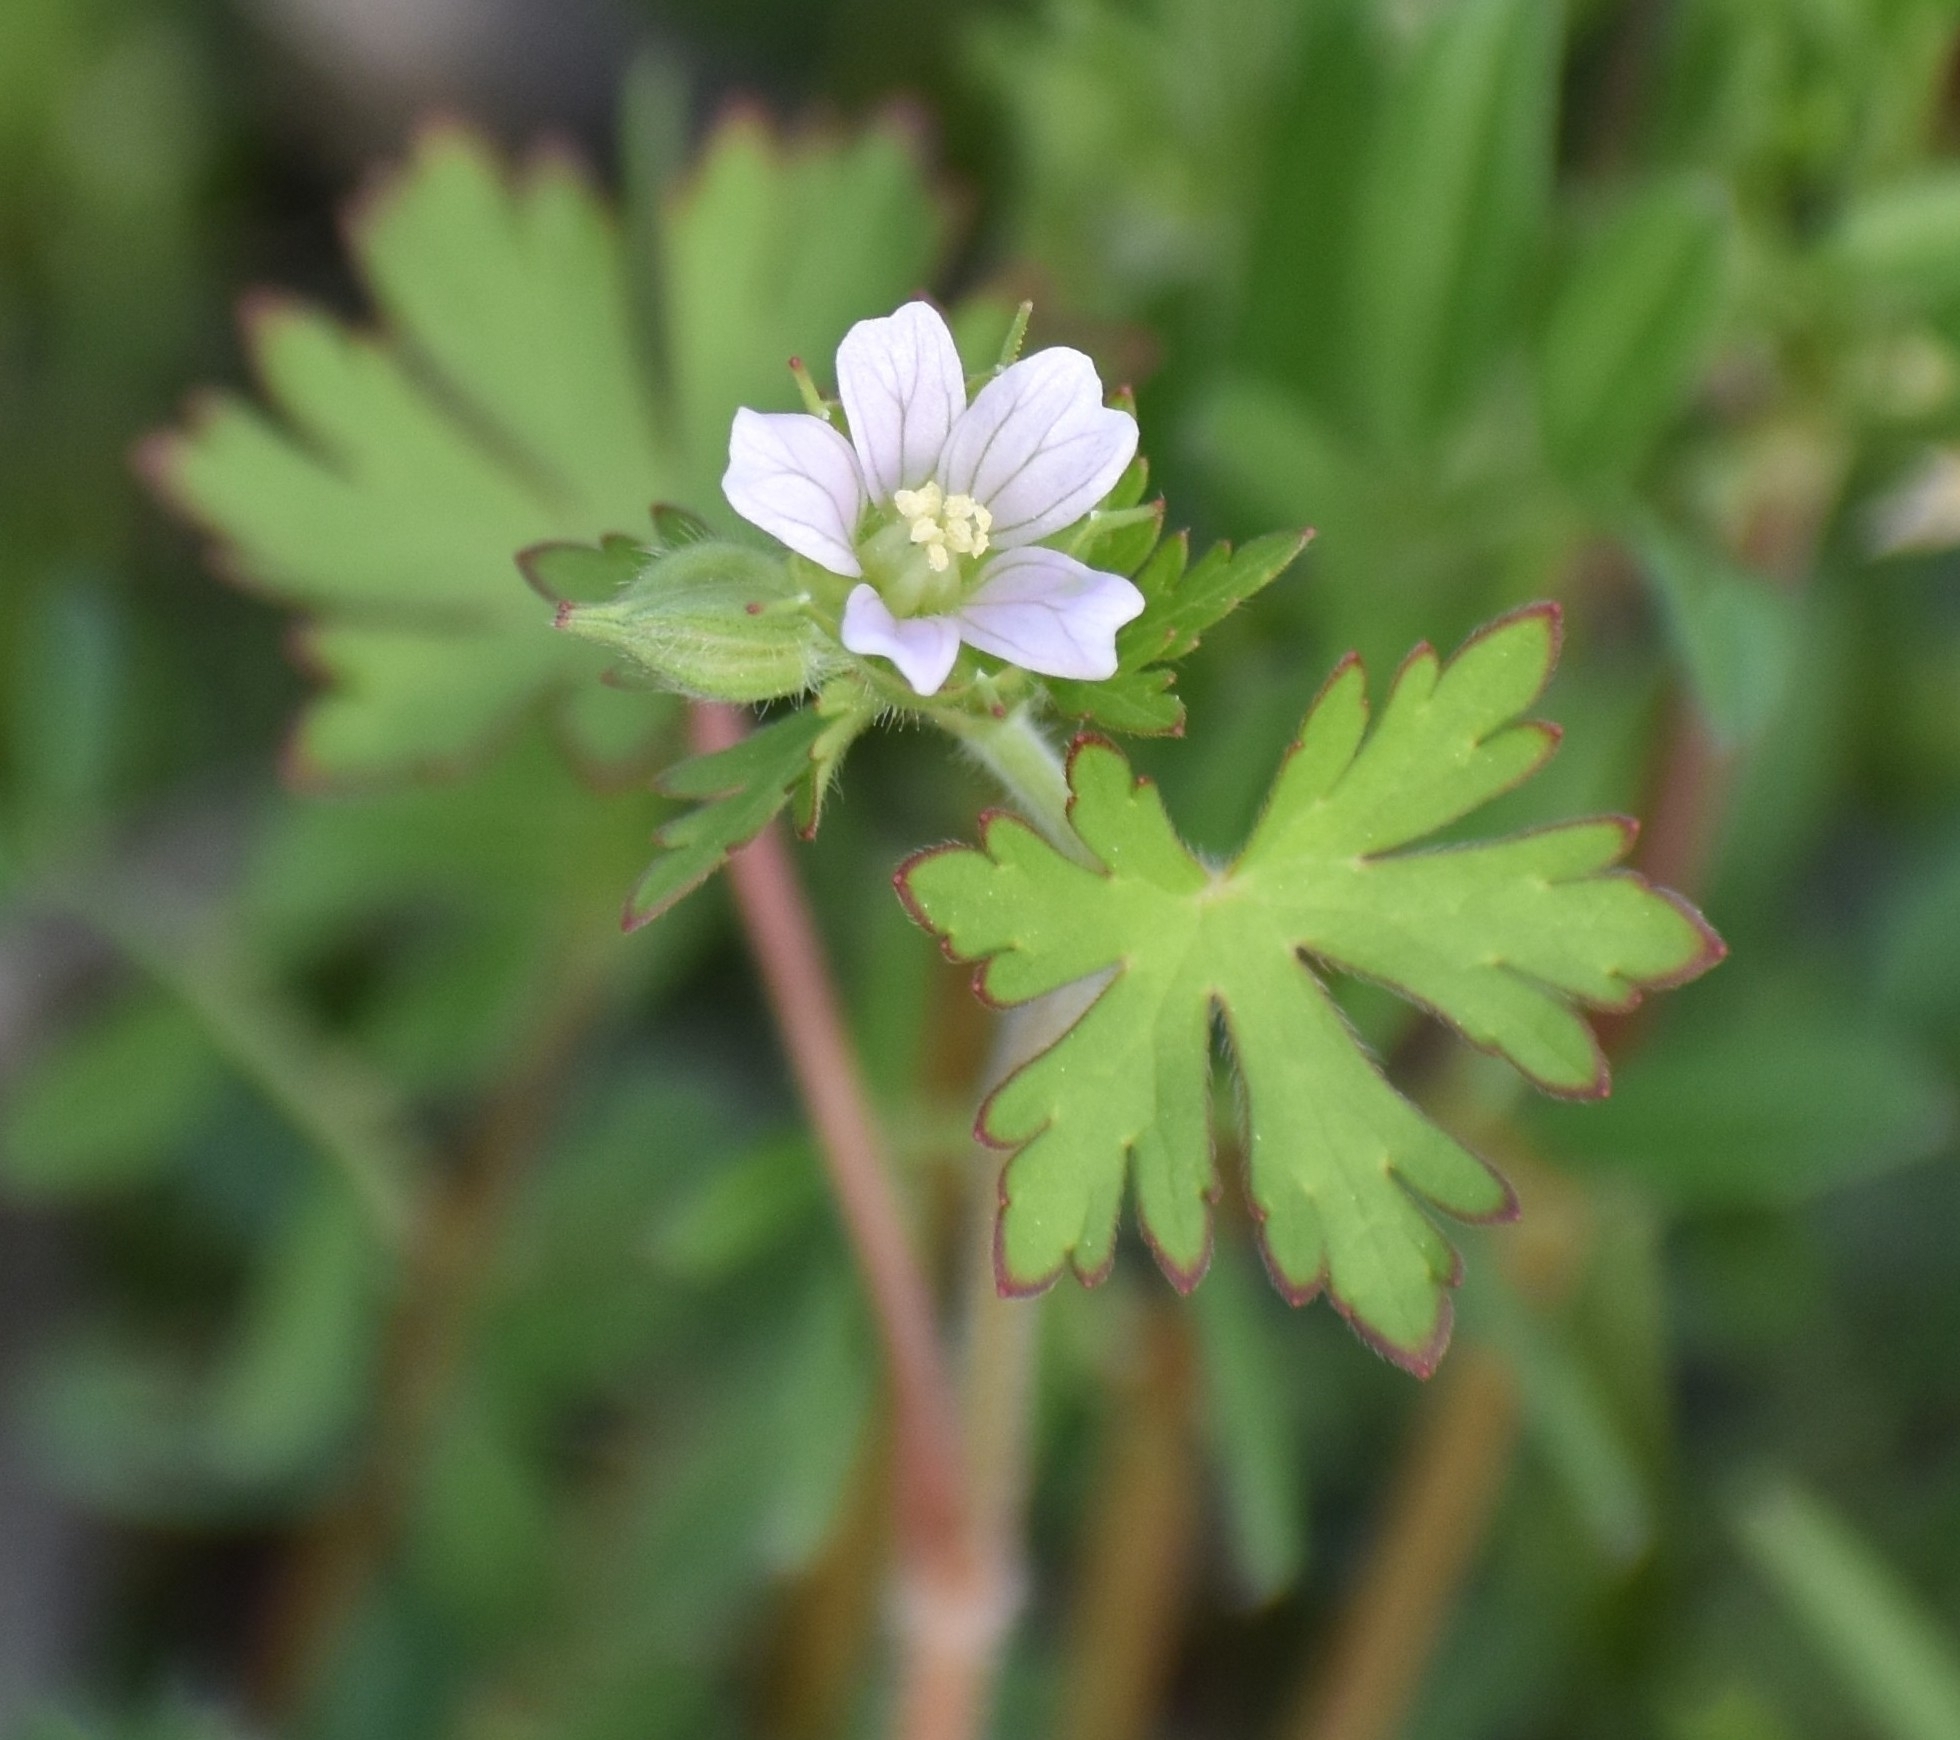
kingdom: Plantae
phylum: Tracheophyta
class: Magnoliopsida
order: Geraniales
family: Geraniaceae
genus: Geranium
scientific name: Geranium carolinianum
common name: Carolina crane's-bill
